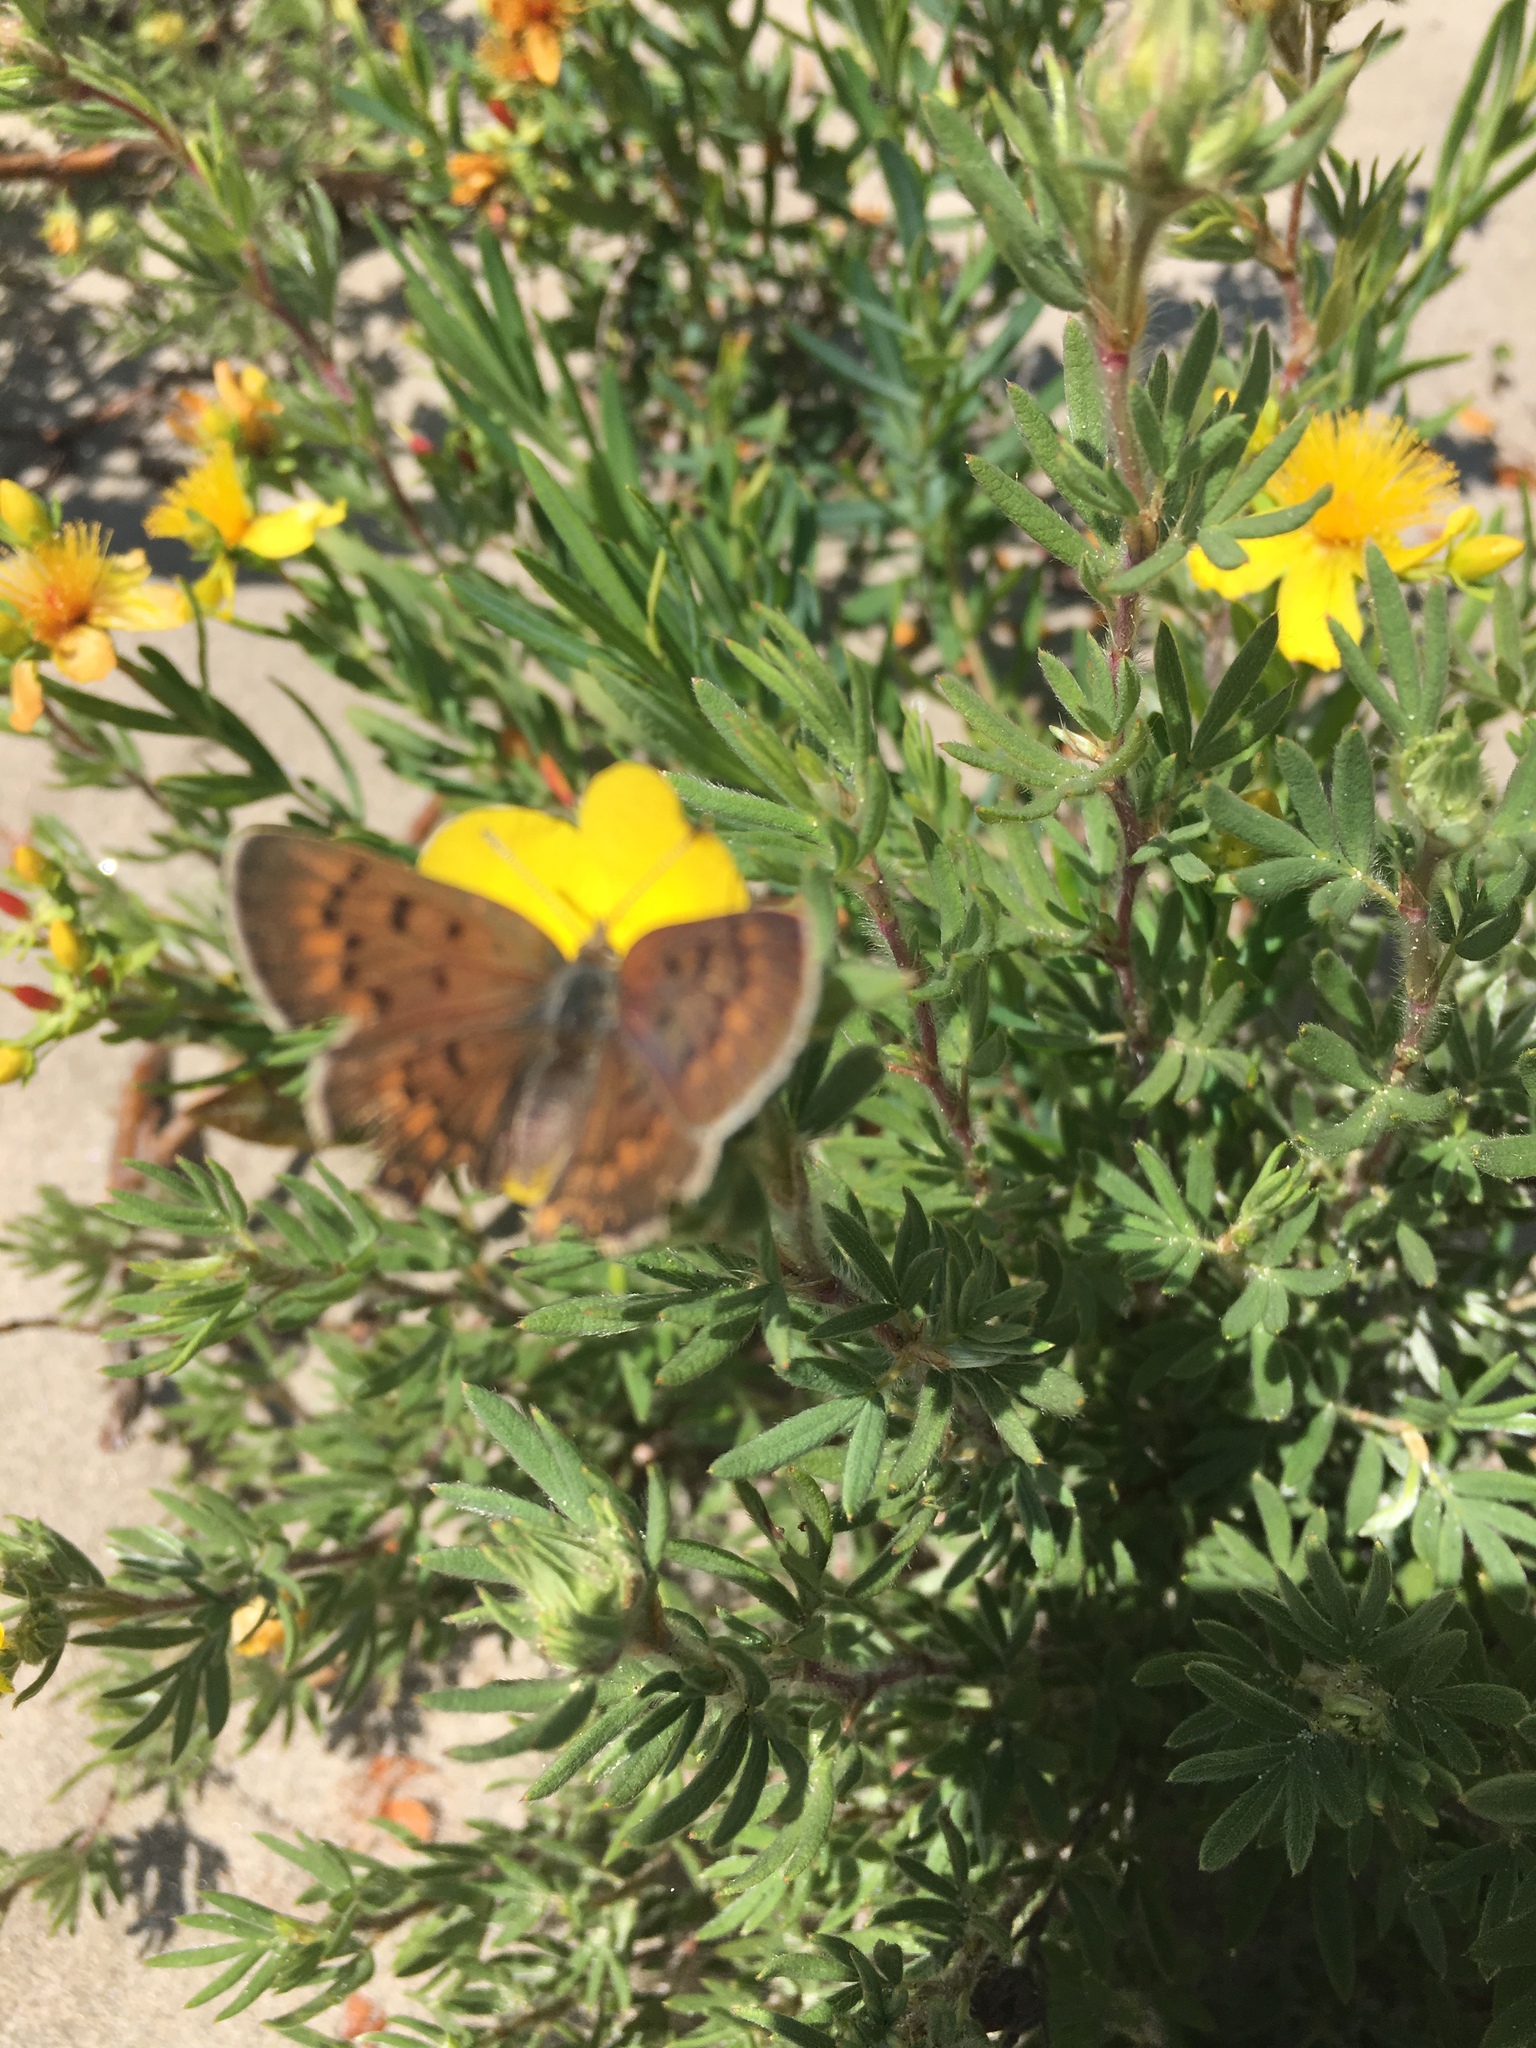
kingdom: Animalia
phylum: Arthropoda
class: Insecta
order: Lepidoptera
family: Lycaenidae
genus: Tharsalea
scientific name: Tharsalea dorcas
